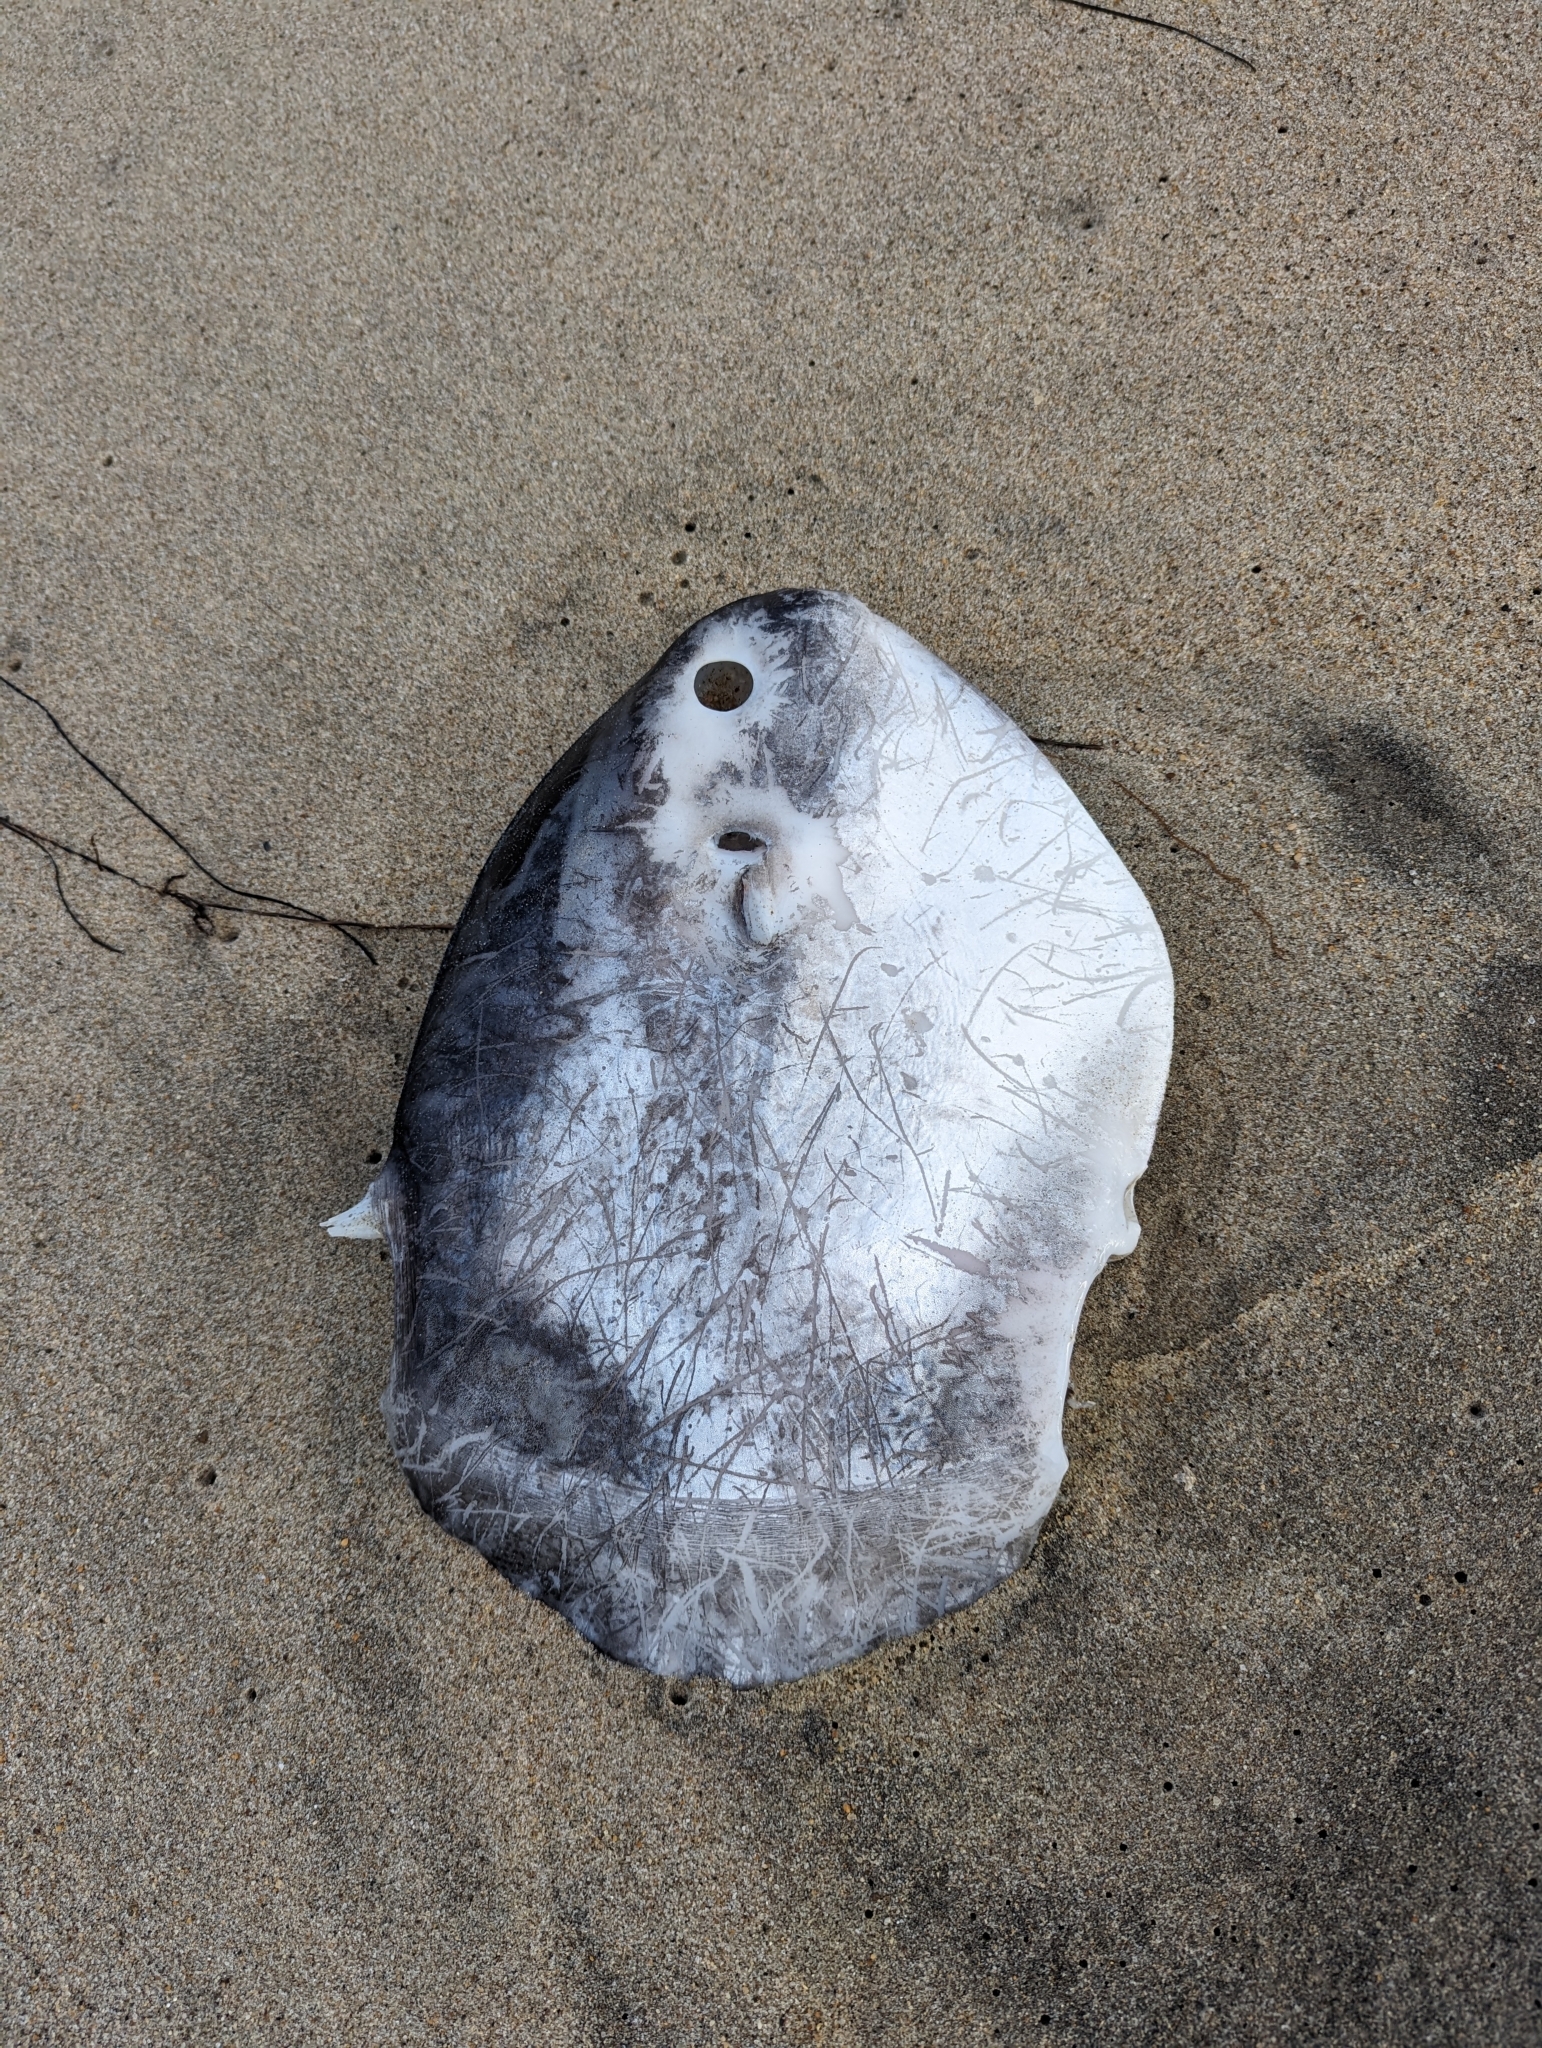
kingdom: Animalia
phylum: Chordata
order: Tetraodontiformes
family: Molidae
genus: Mola
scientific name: Mola mola
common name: Ocean sunfish
